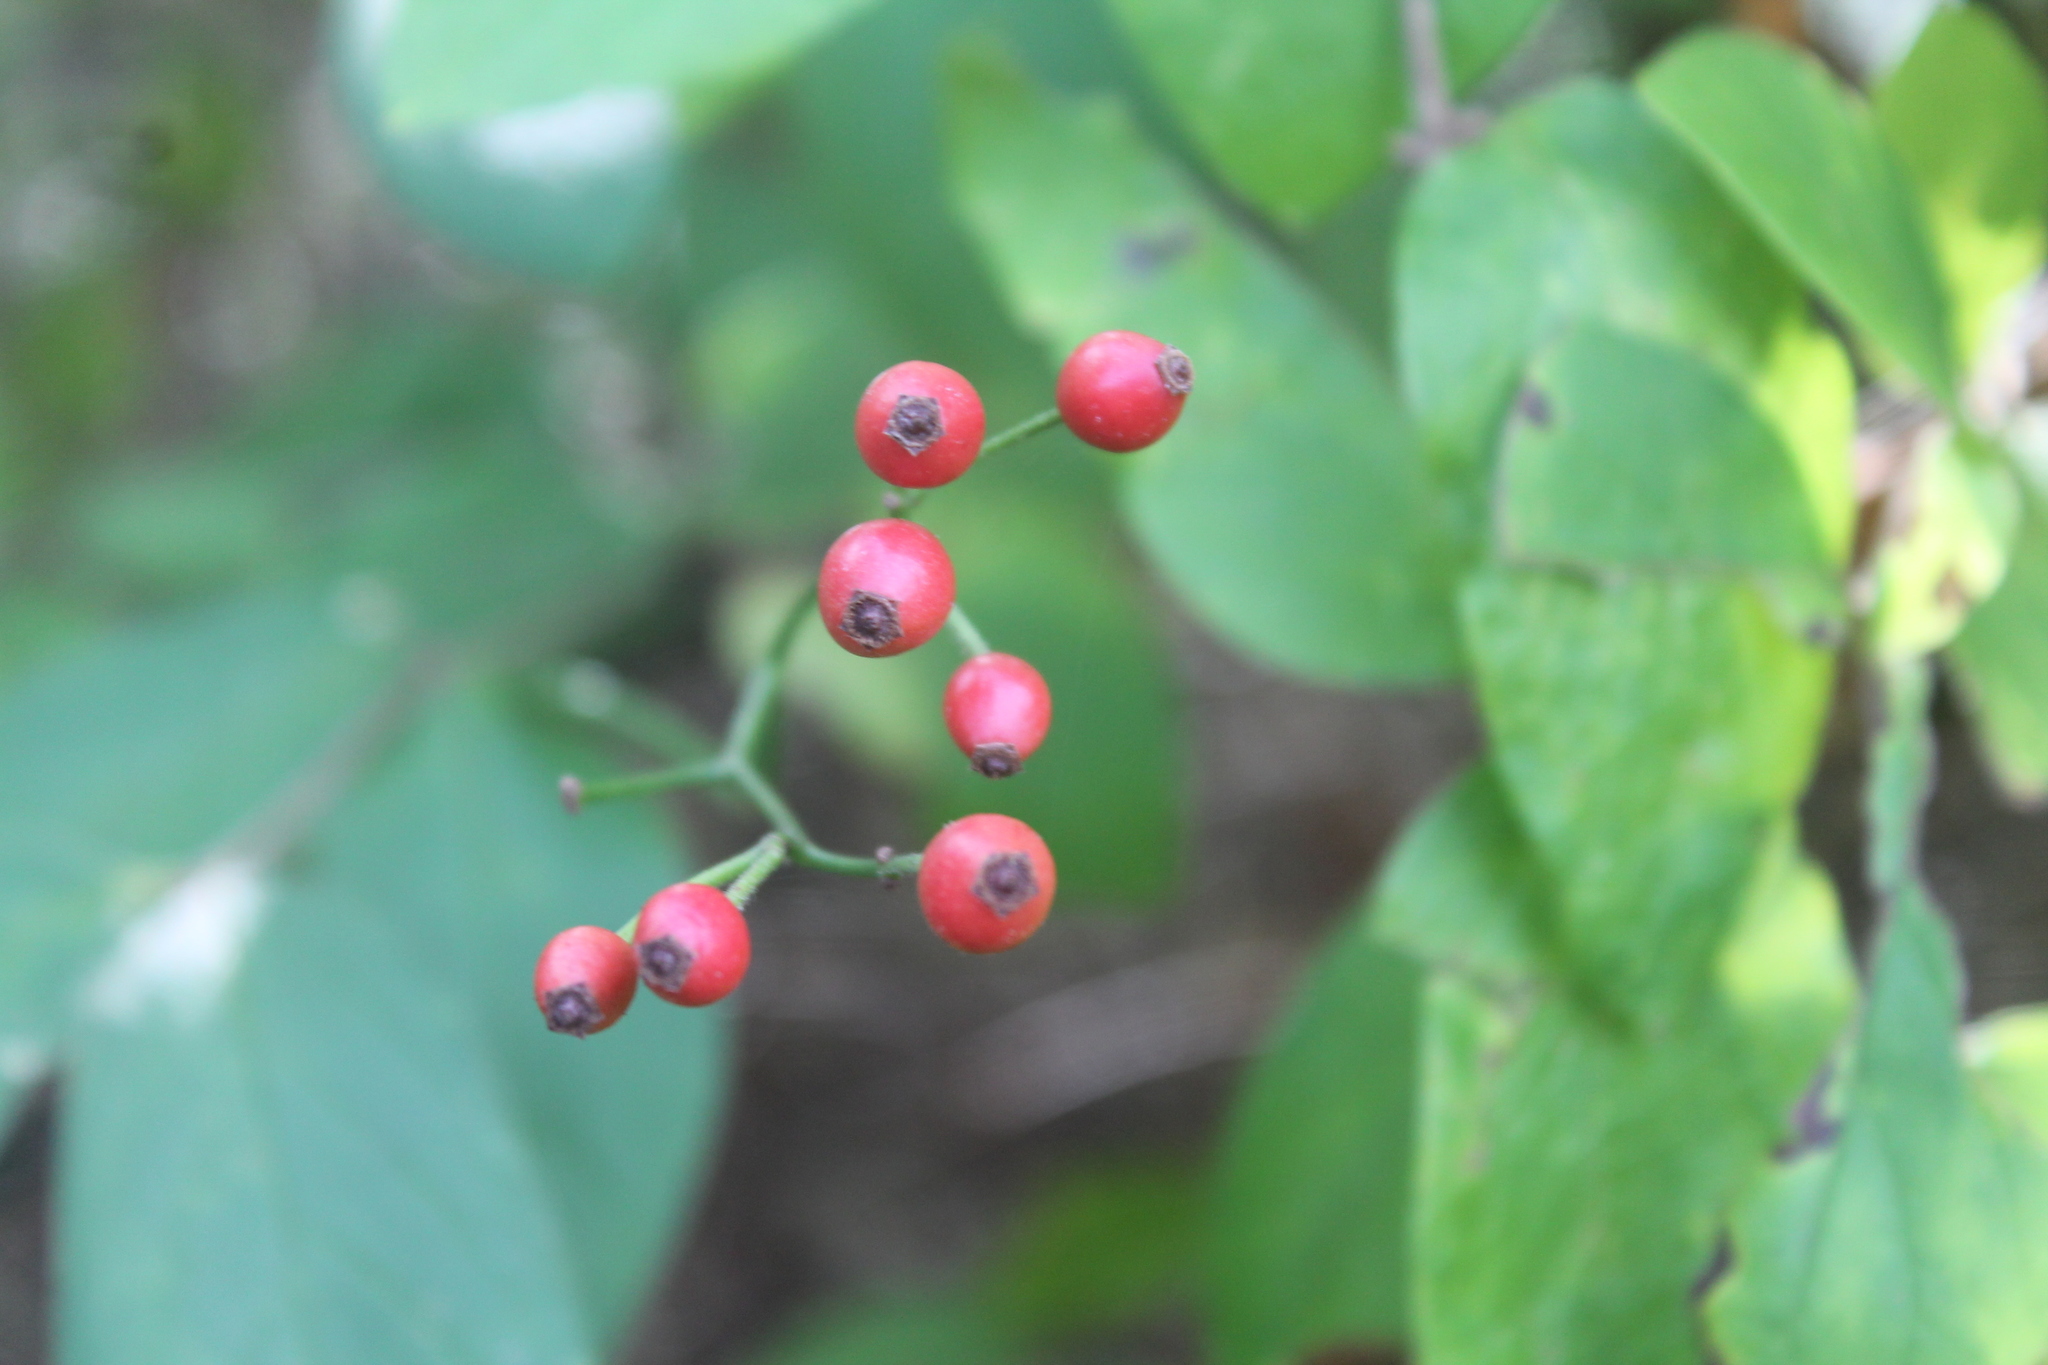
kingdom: Plantae
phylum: Tracheophyta
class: Magnoliopsida
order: Rosales
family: Rosaceae
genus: Rosa
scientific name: Rosa multiflora
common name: Multiflora rose
